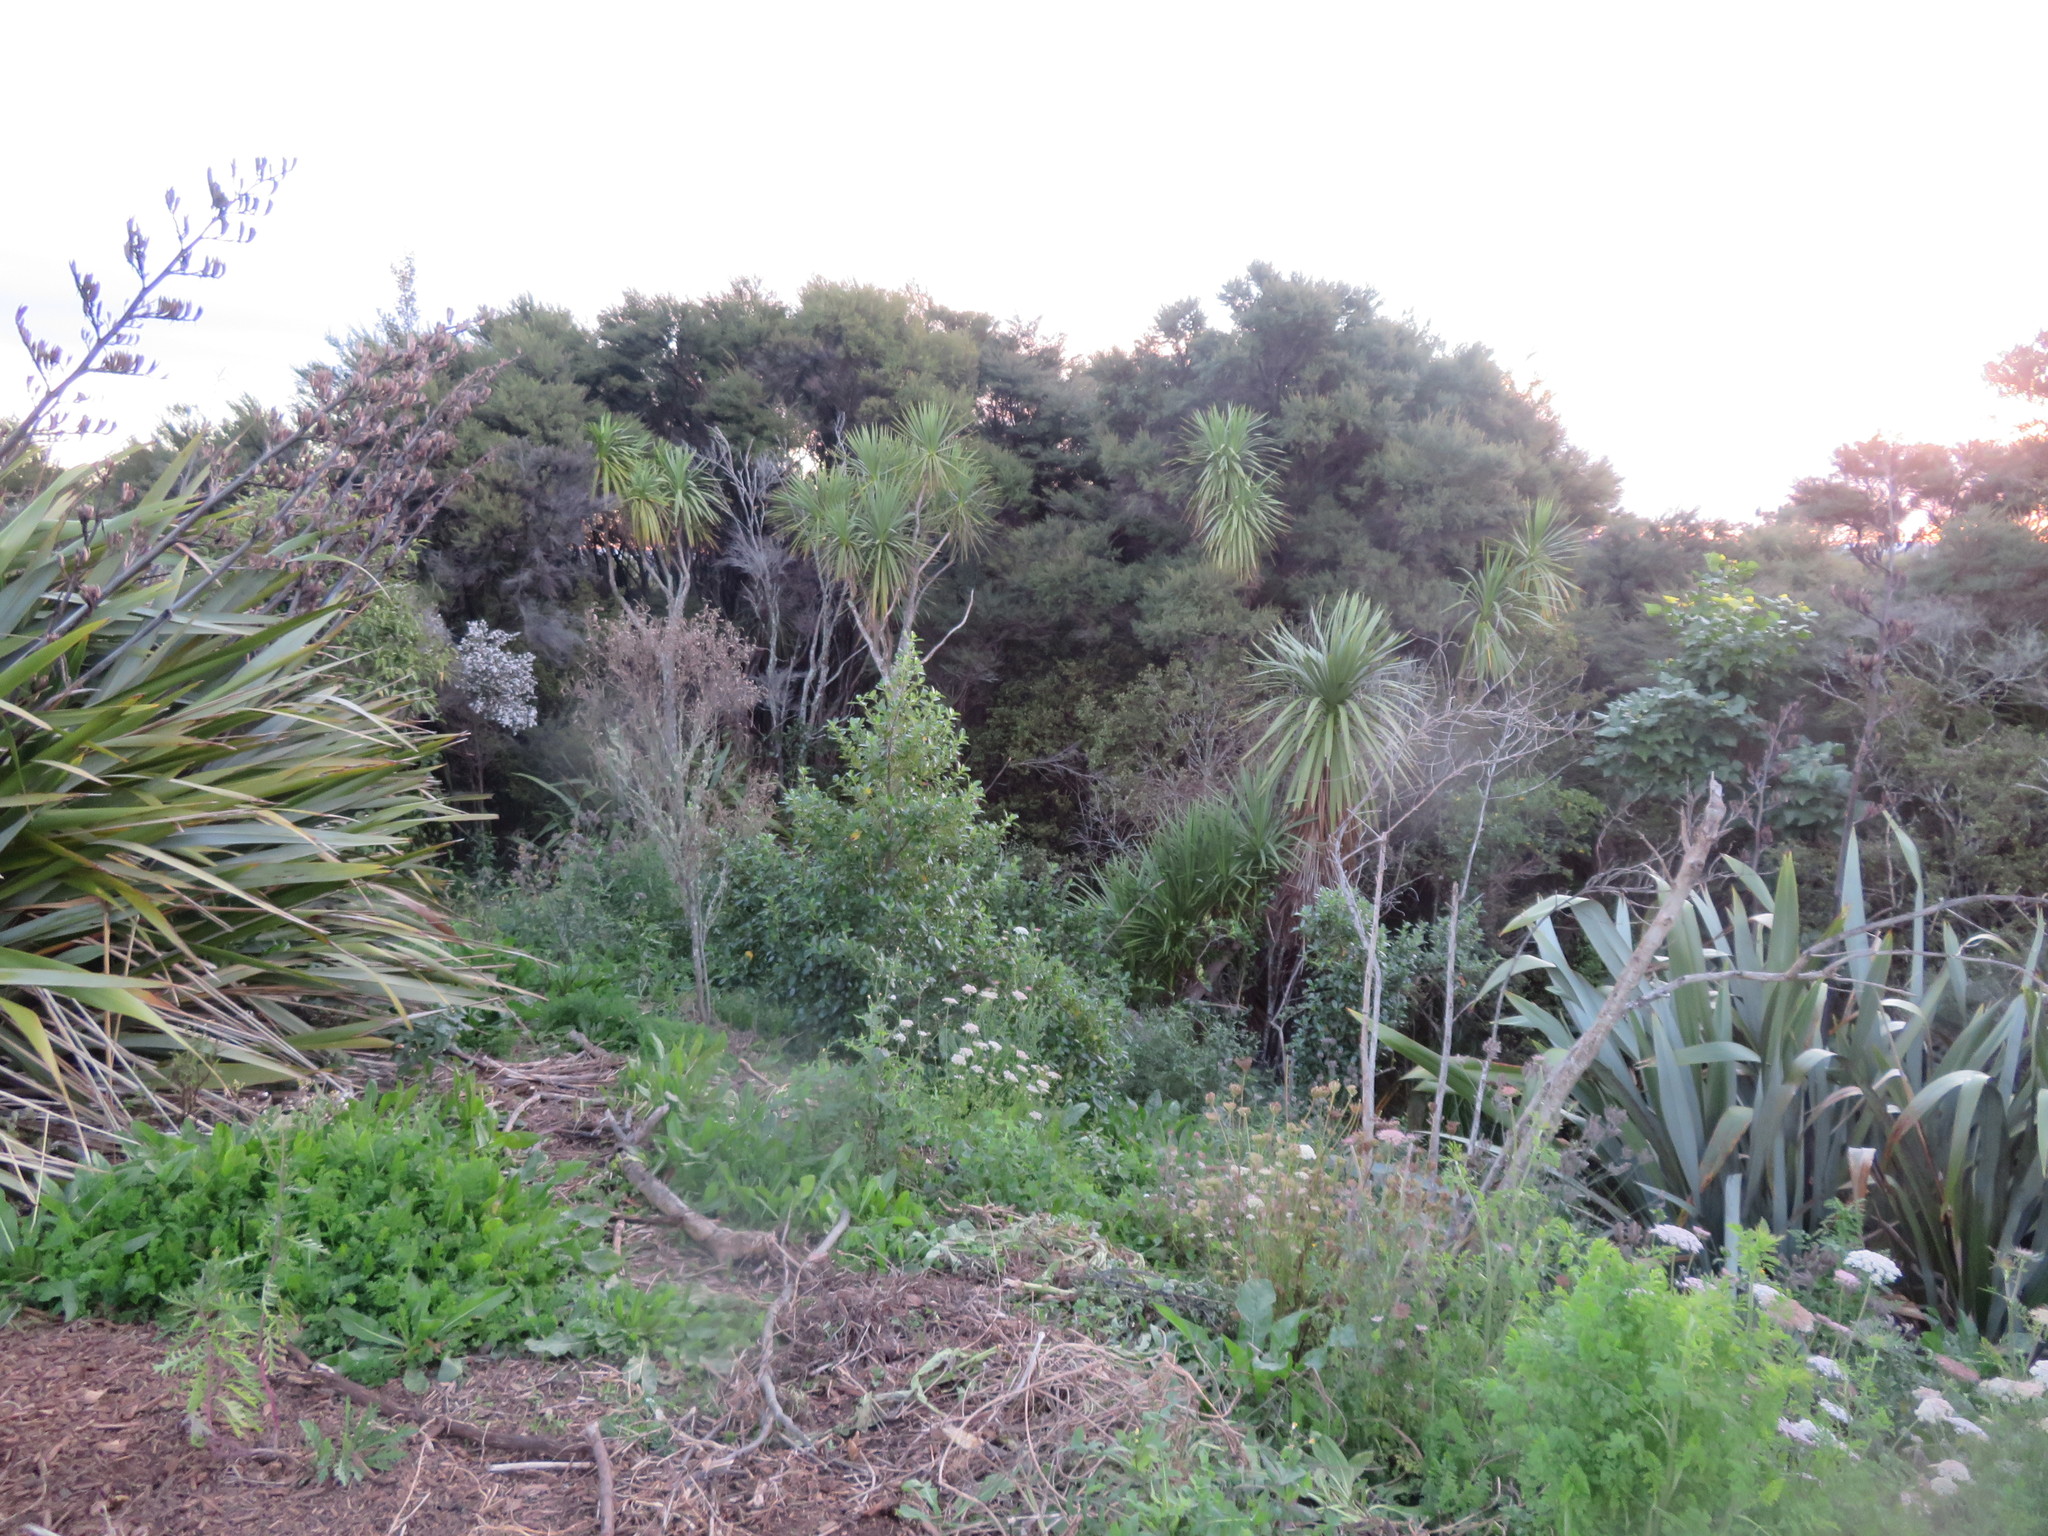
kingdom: Plantae
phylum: Tracheophyta
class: Magnoliopsida
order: Gentianales
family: Rubiaceae
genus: Coprosma
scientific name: Coprosma robusta
